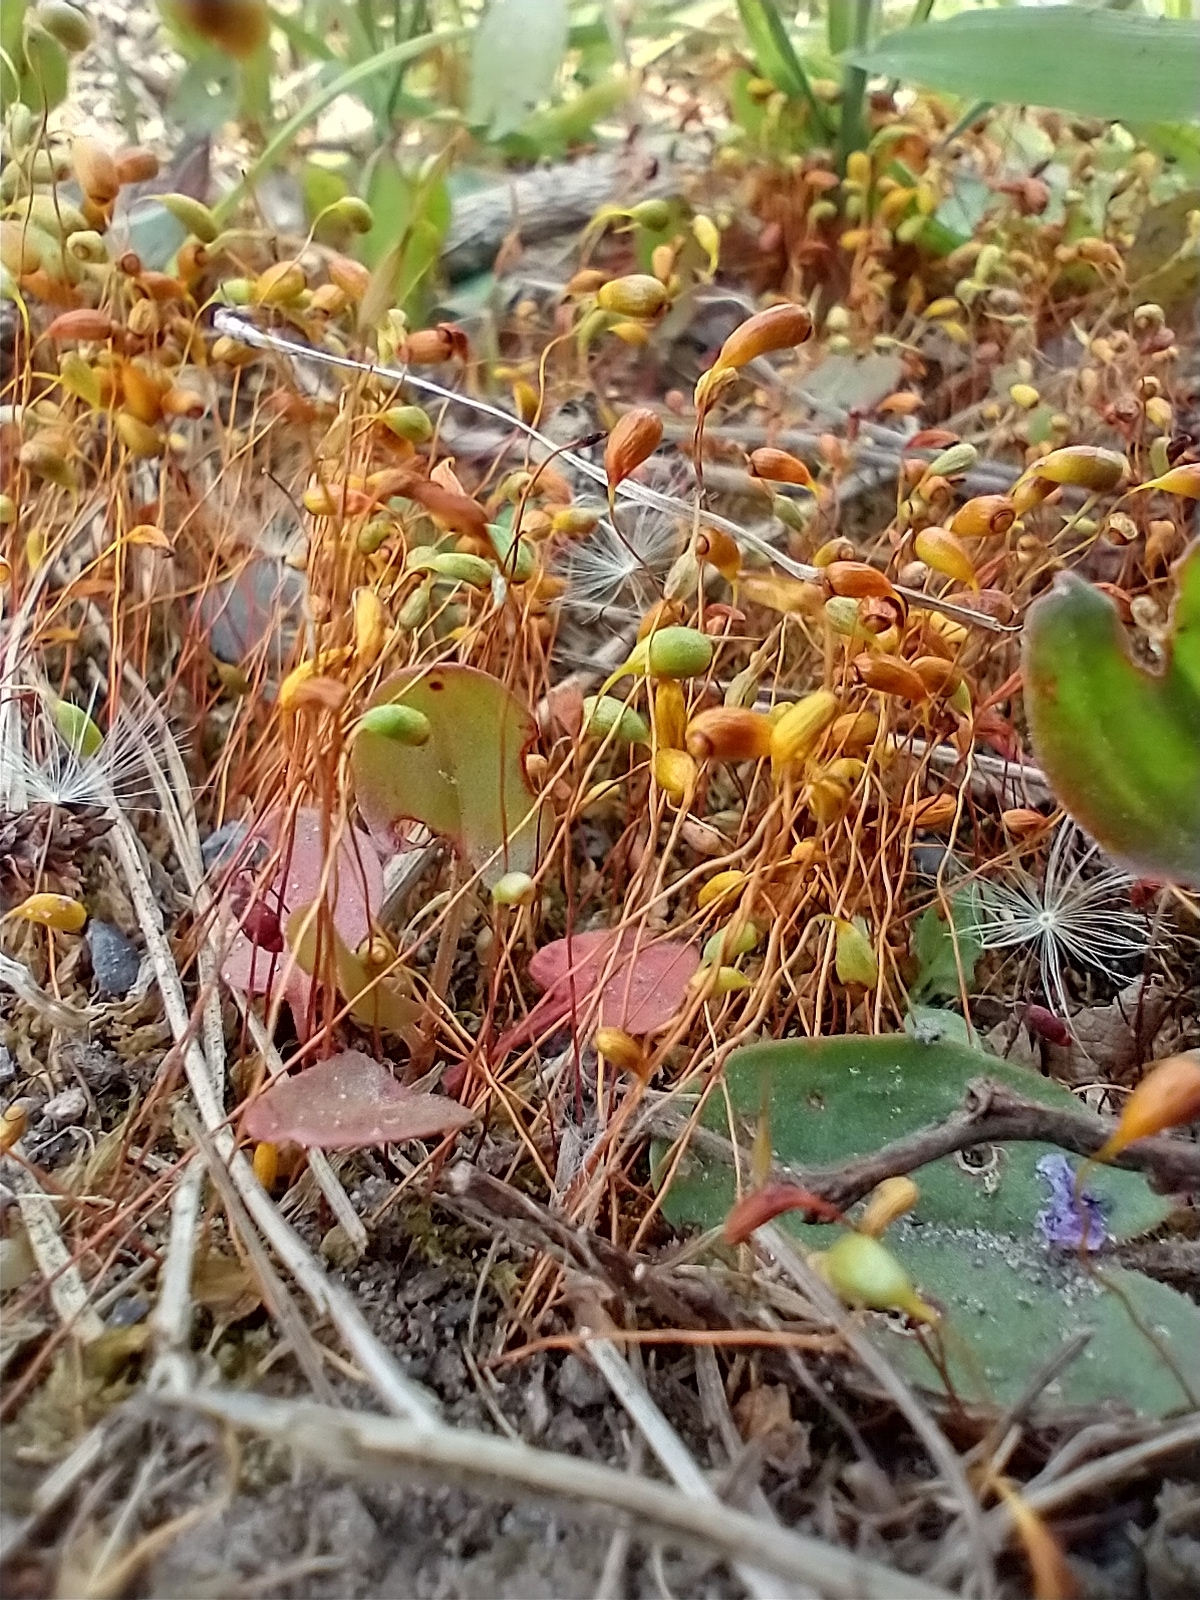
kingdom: Plantae
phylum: Bryophyta
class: Bryopsida
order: Funariales
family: Funariaceae
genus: Funaria
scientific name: Funaria hygrometrica
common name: Common cord moss
